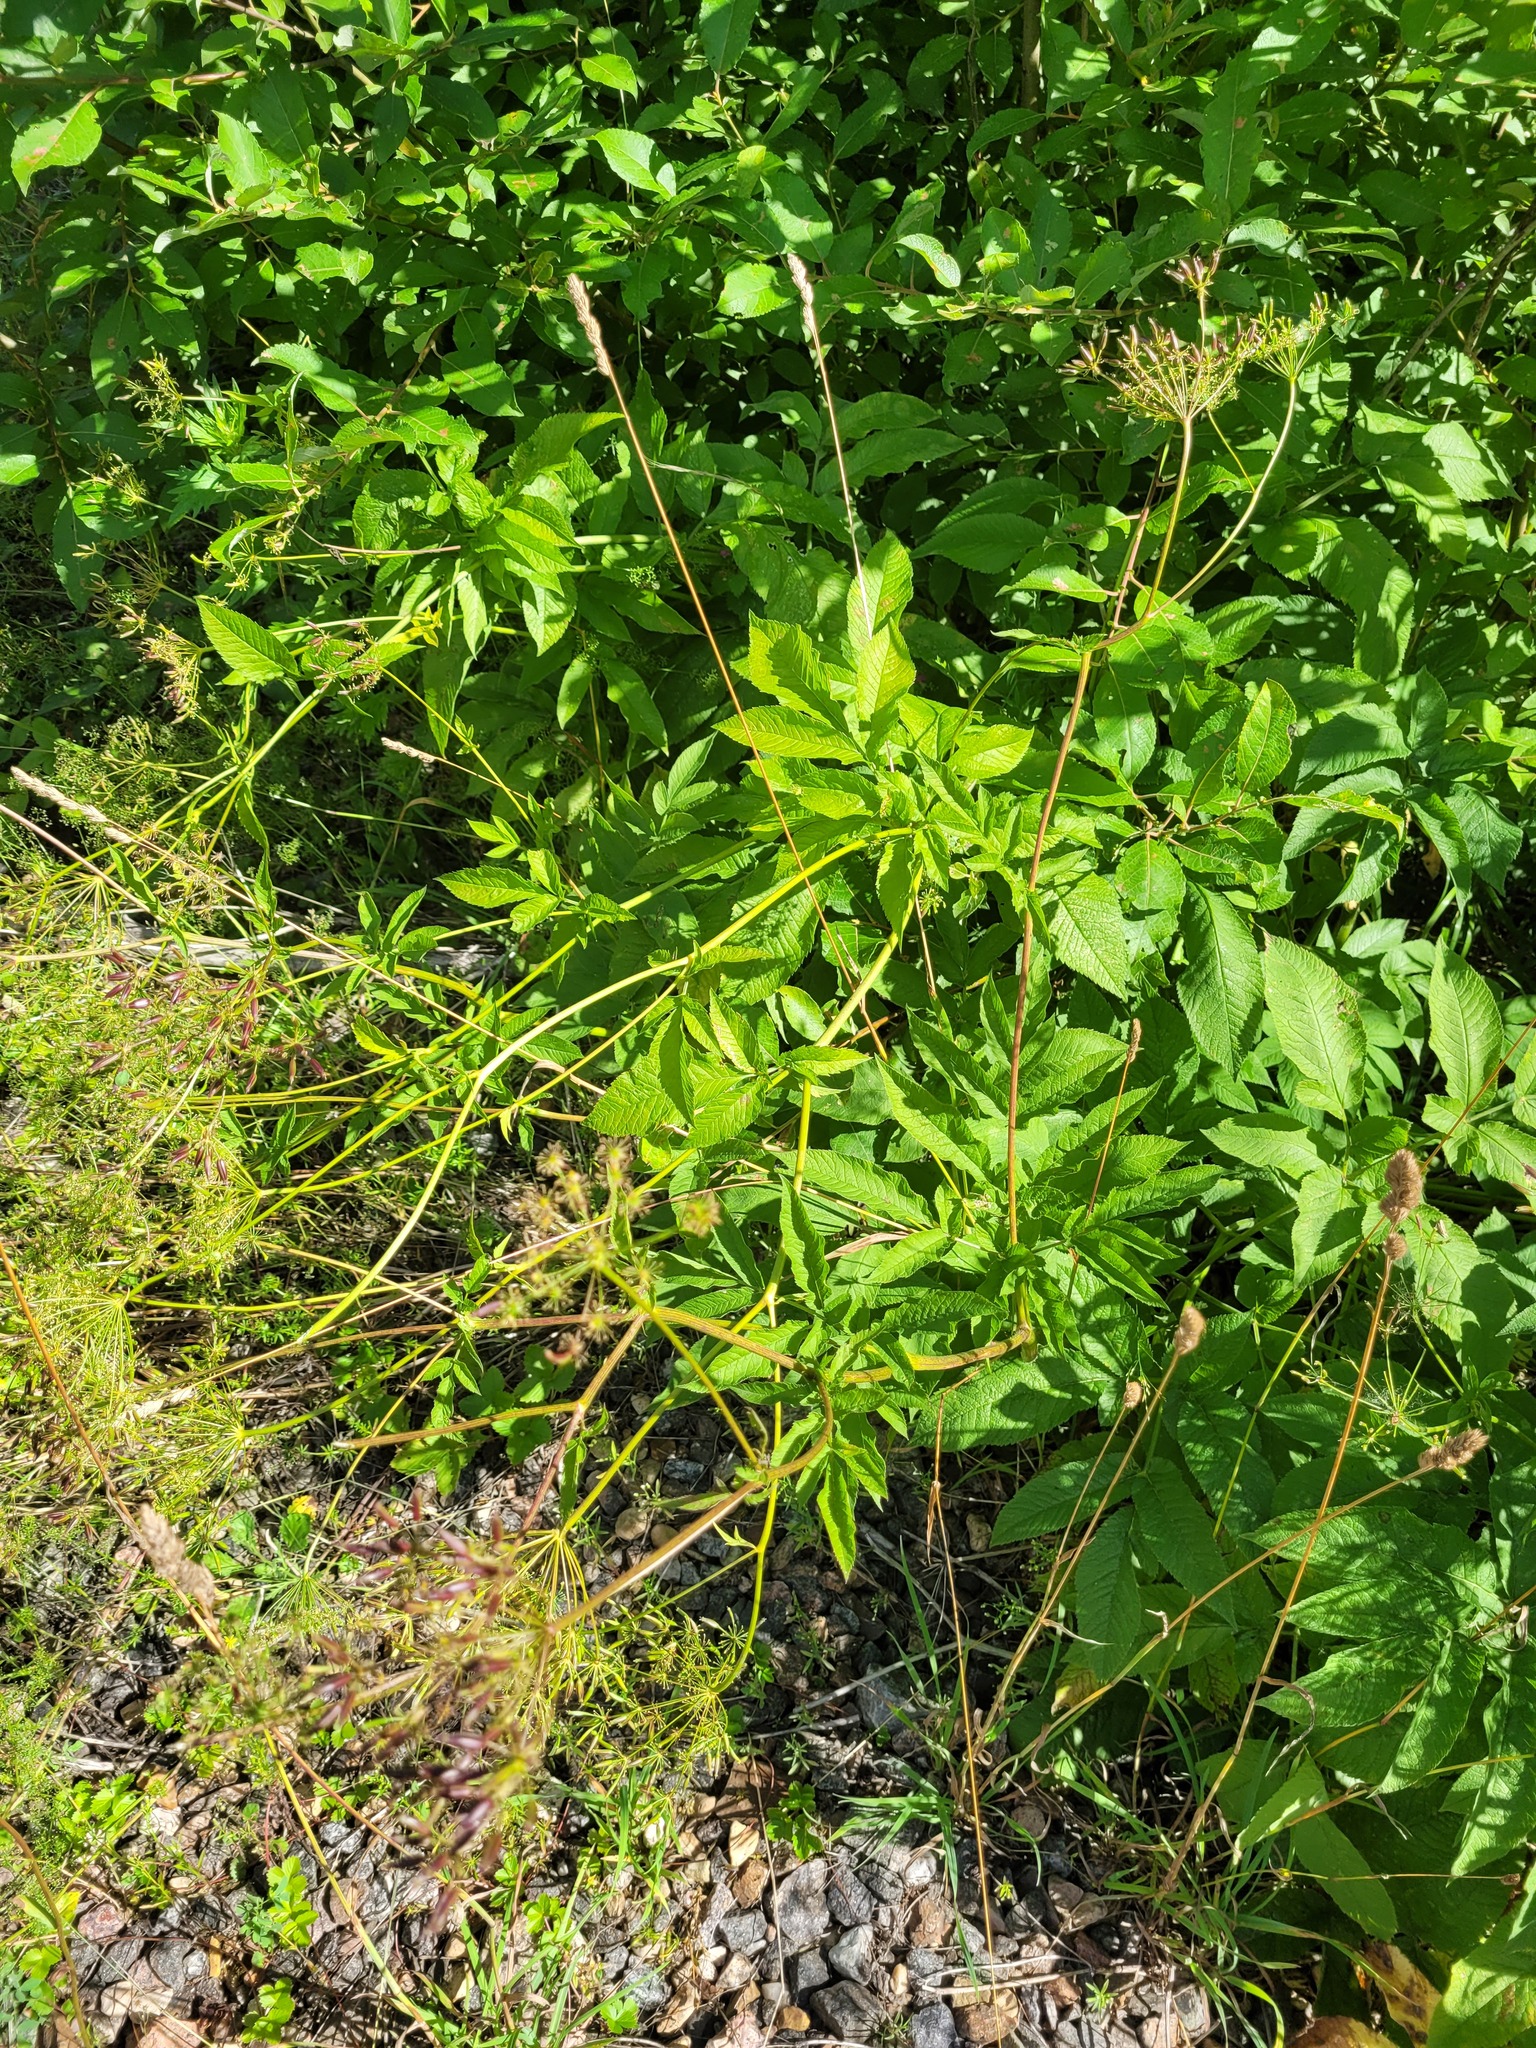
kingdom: Plantae
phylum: Tracheophyta
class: Magnoliopsida
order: Apiales
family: Apiaceae
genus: Chaerophyllum
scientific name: Chaerophyllum aromaticum
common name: Broadleaf chervil
